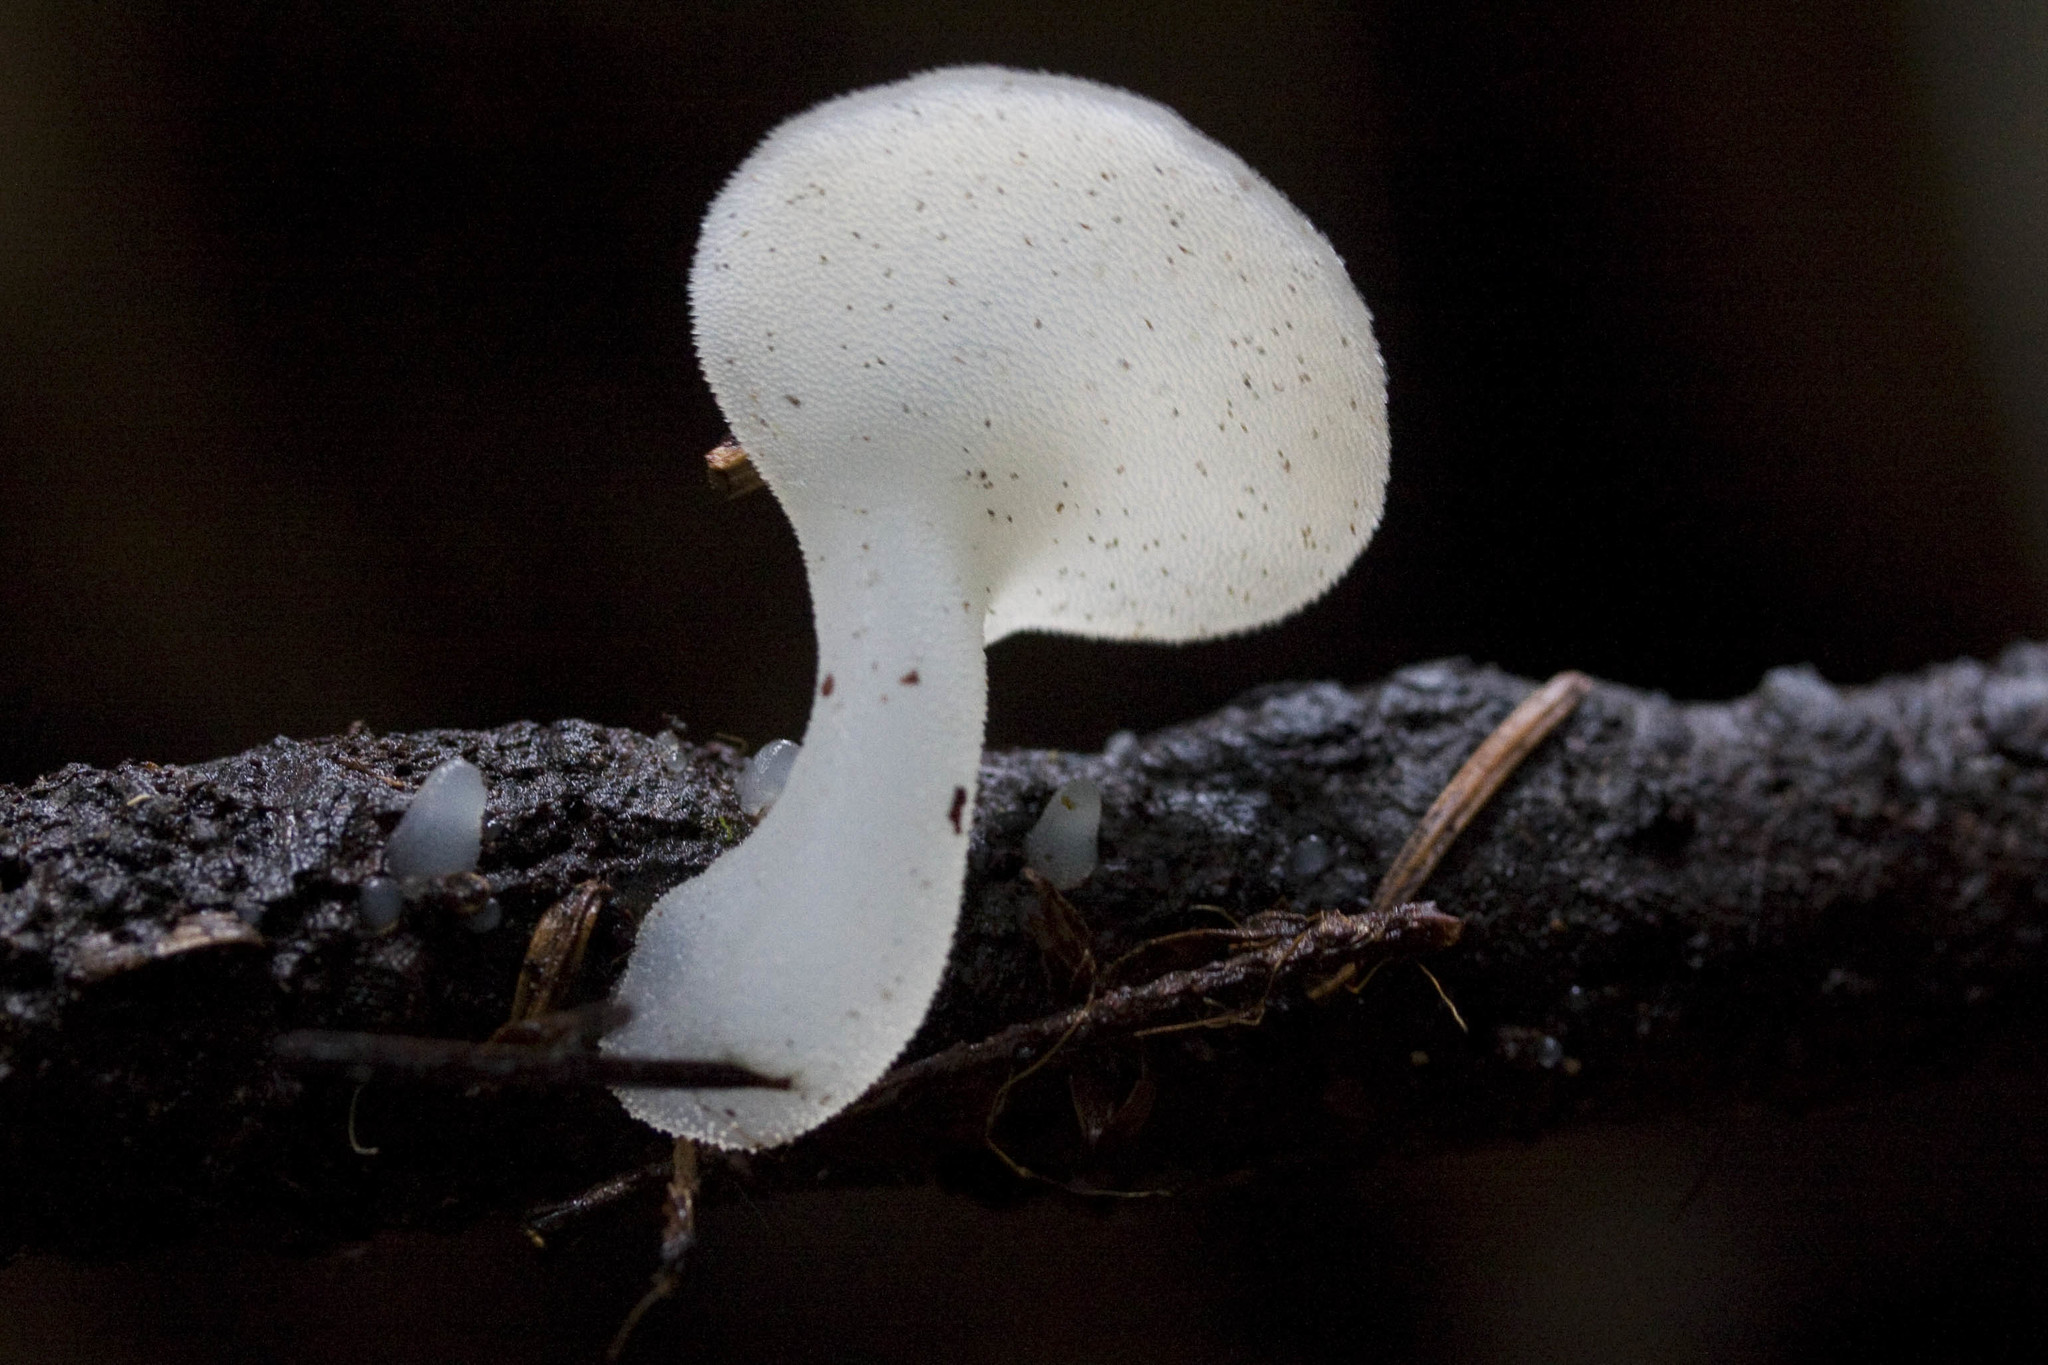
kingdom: Fungi
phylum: Basidiomycota
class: Agaricomycetes
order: Auriculariales
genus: Pseudohydnum
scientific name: Pseudohydnum gelatinosum
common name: Jelly tongue
